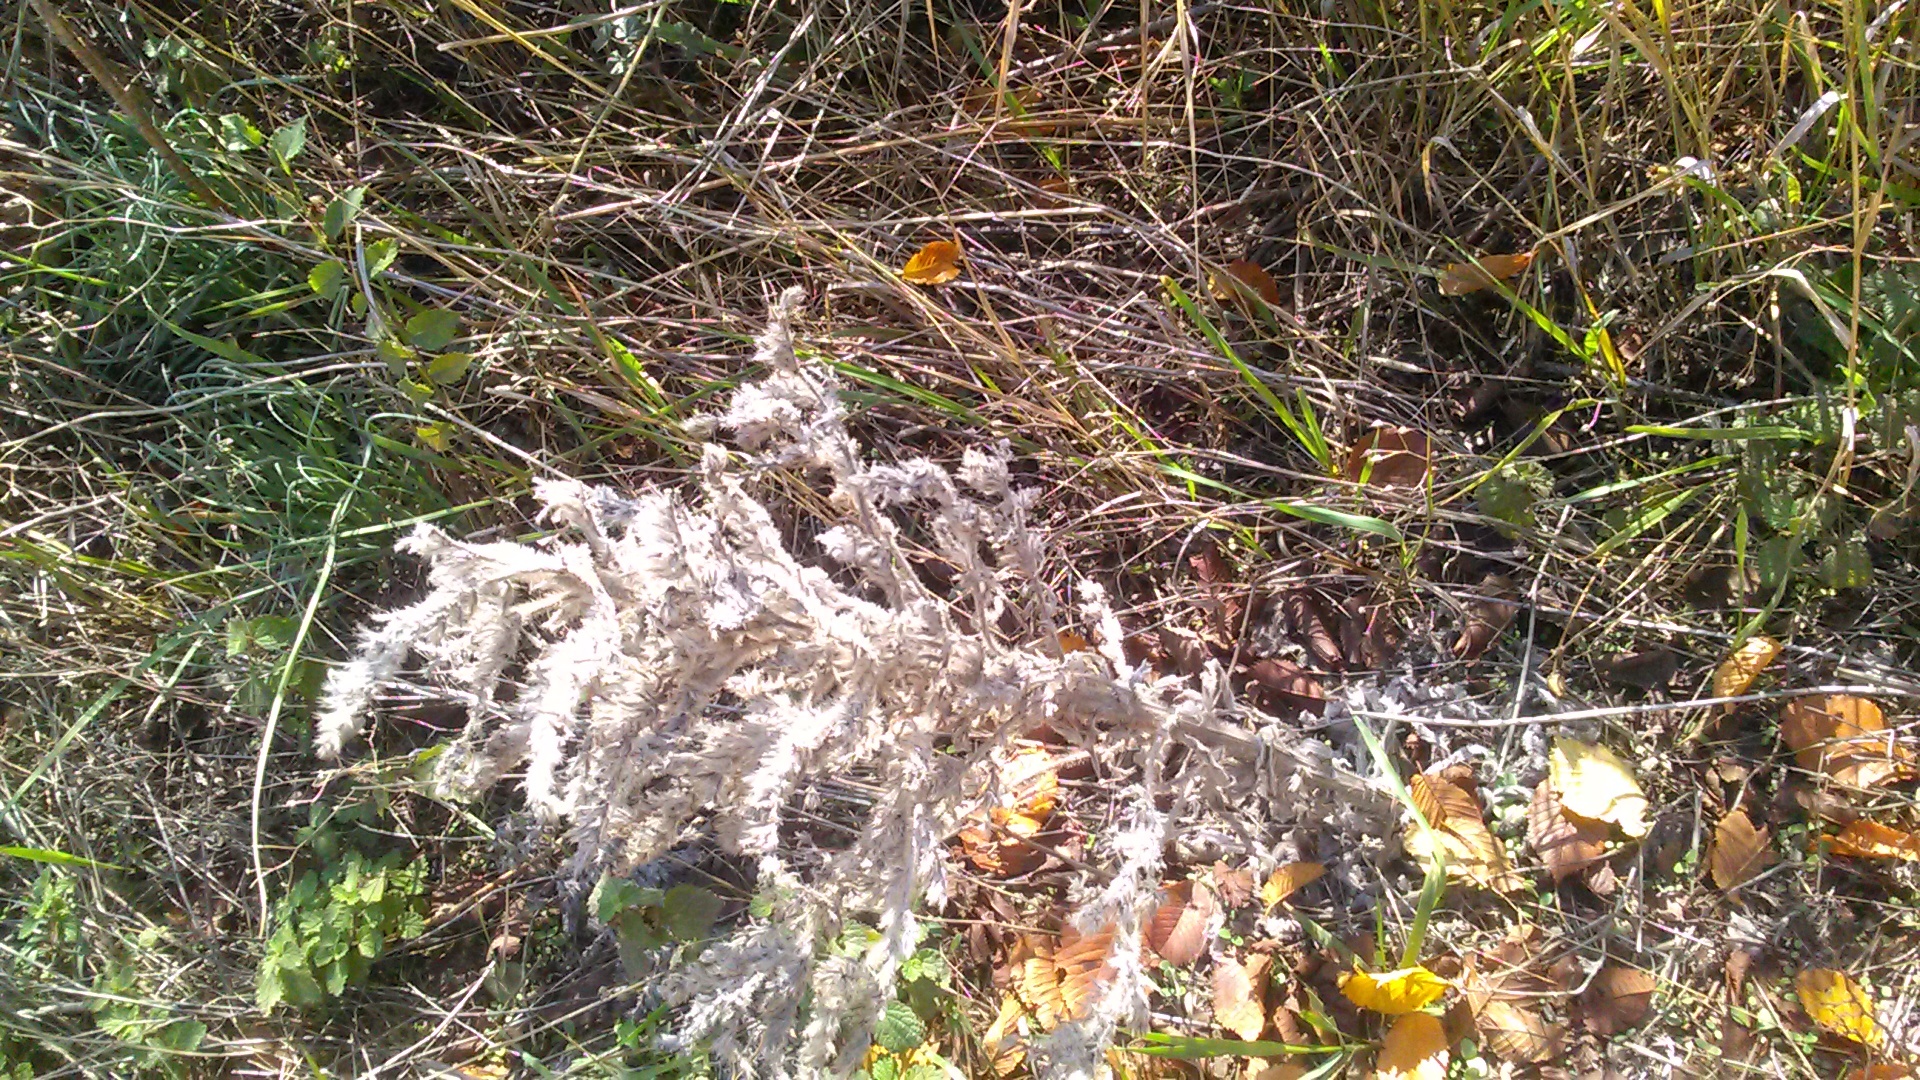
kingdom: Plantae
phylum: Tracheophyta
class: Magnoliopsida
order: Boraginales
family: Boraginaceae
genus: Echium
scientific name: Echium italicum
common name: Italian viper's bugloss
